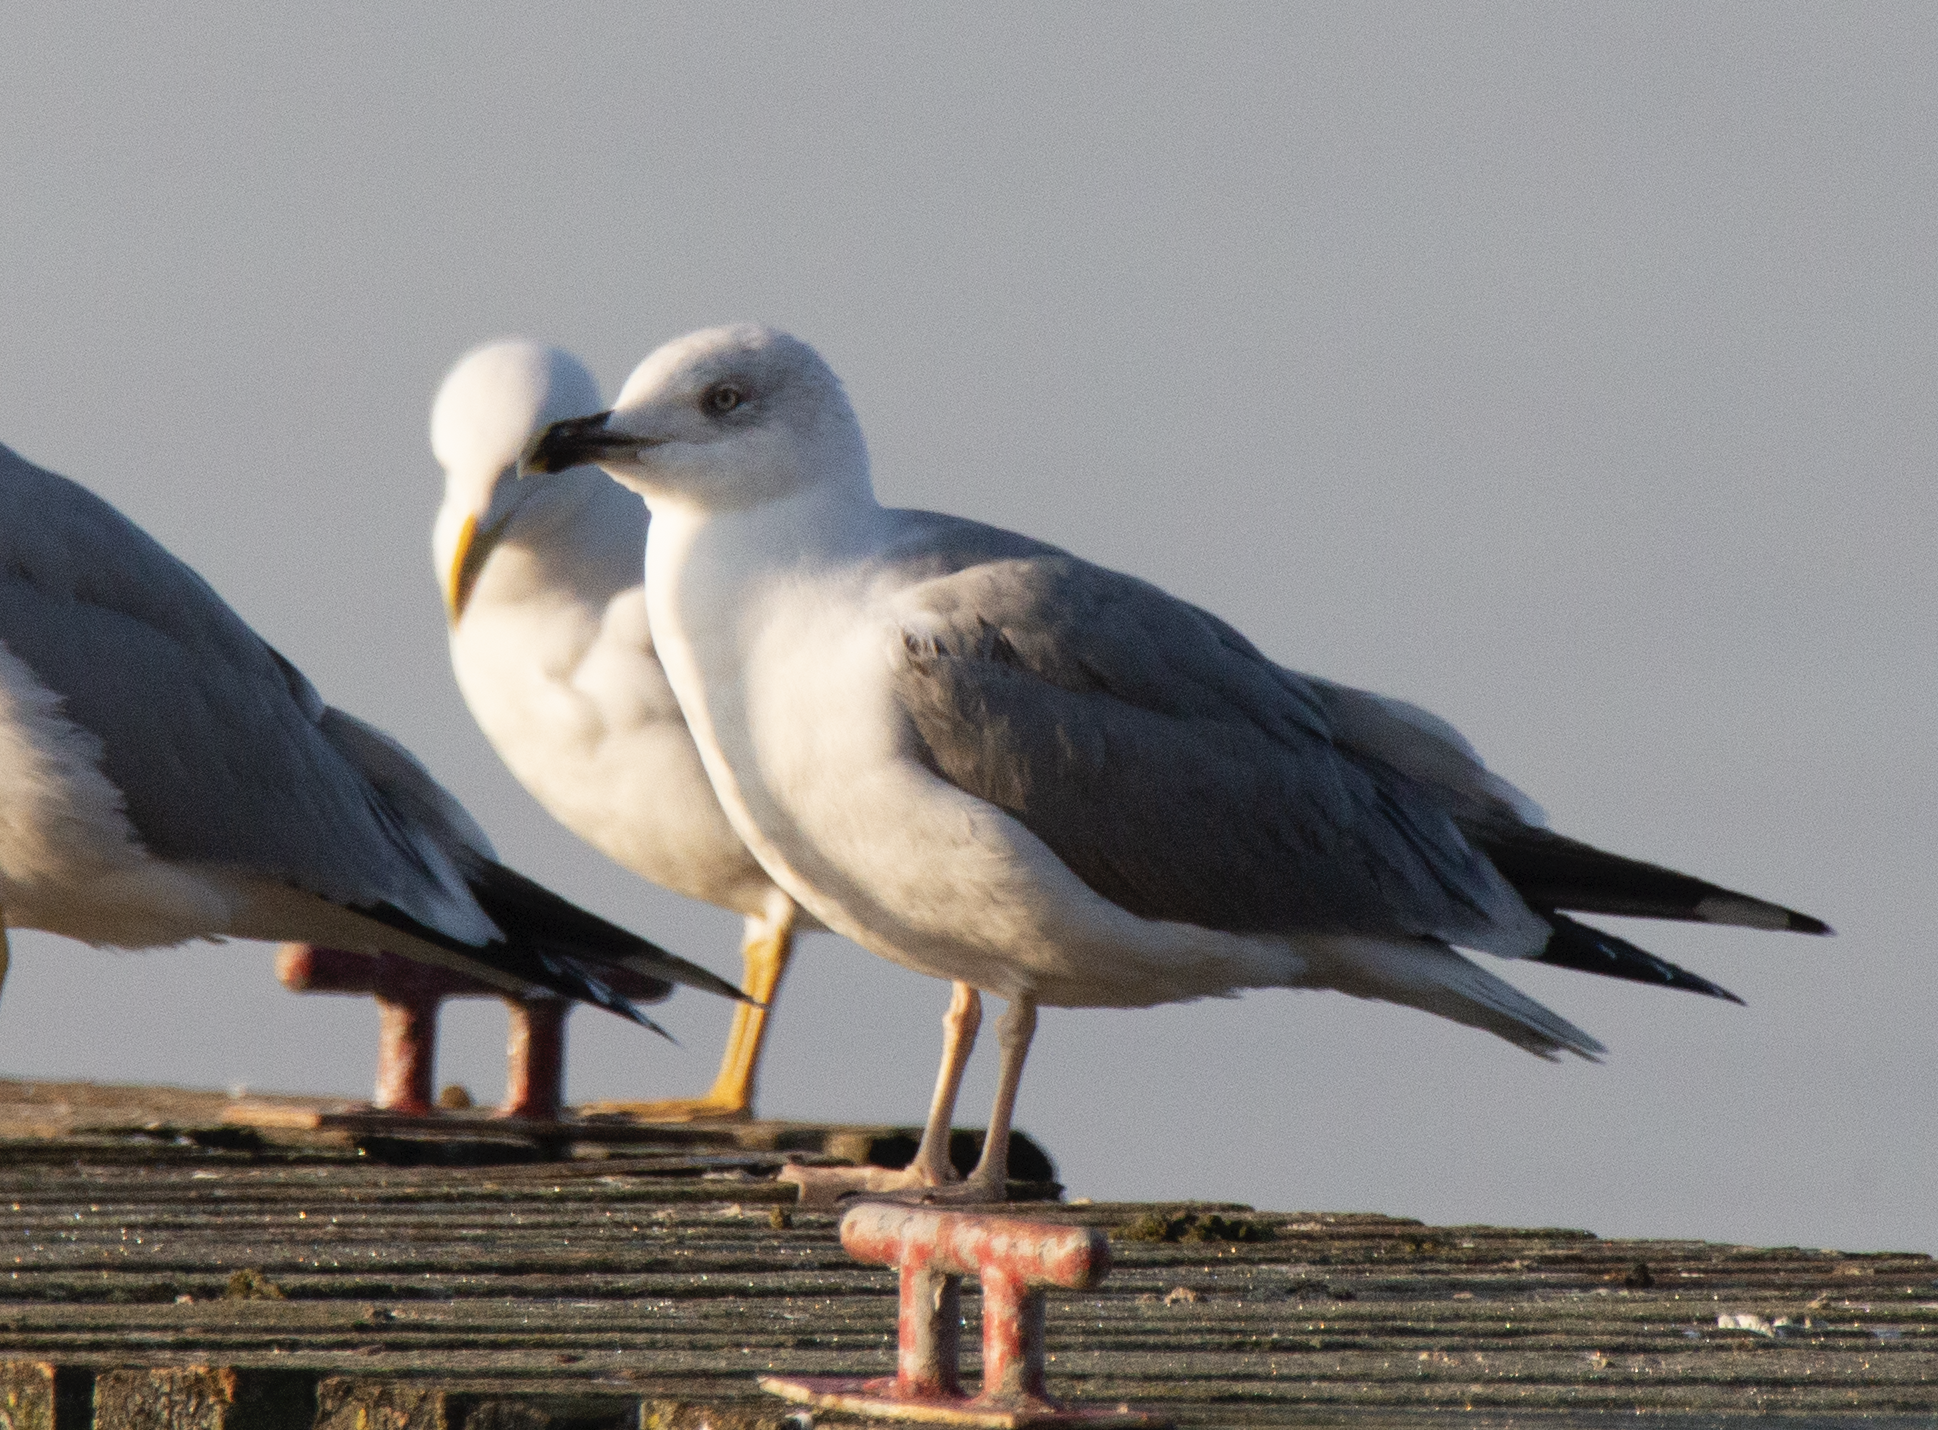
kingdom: Animalia
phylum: Chordata
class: Aves
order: Charadriiformes
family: Laridae
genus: Larus
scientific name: Larus michahellis
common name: Yellow-legged gull
